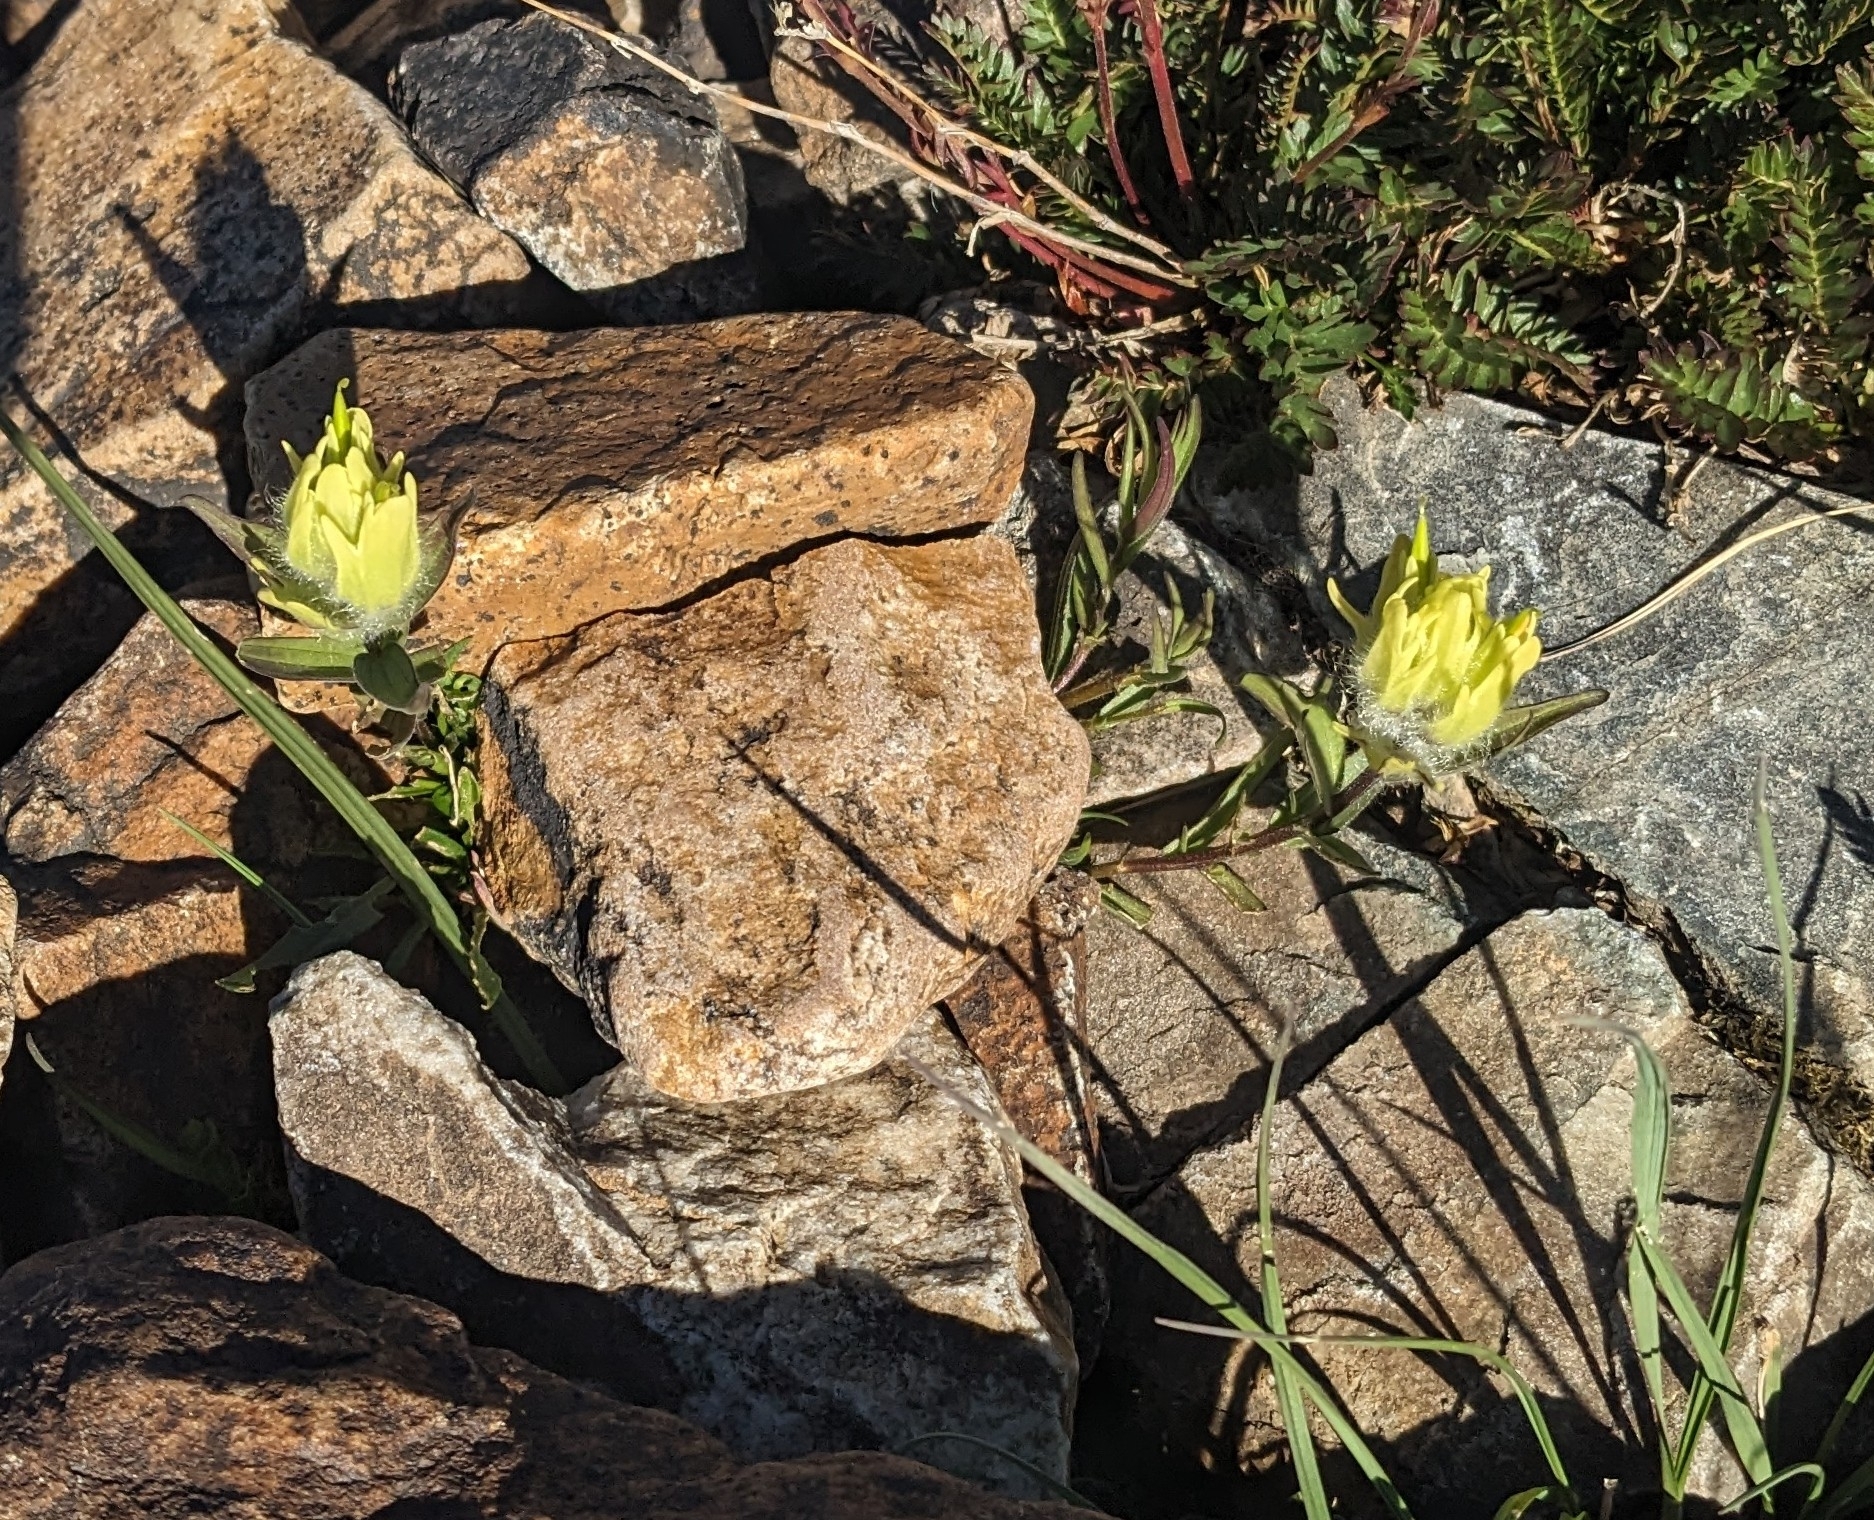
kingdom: Plantae
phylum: Tracheophyta
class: Magnoliopsida
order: Lamiales
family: Orobanchaceae
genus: Castilleja
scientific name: Castilleja occidentalis
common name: Western paintbrush
